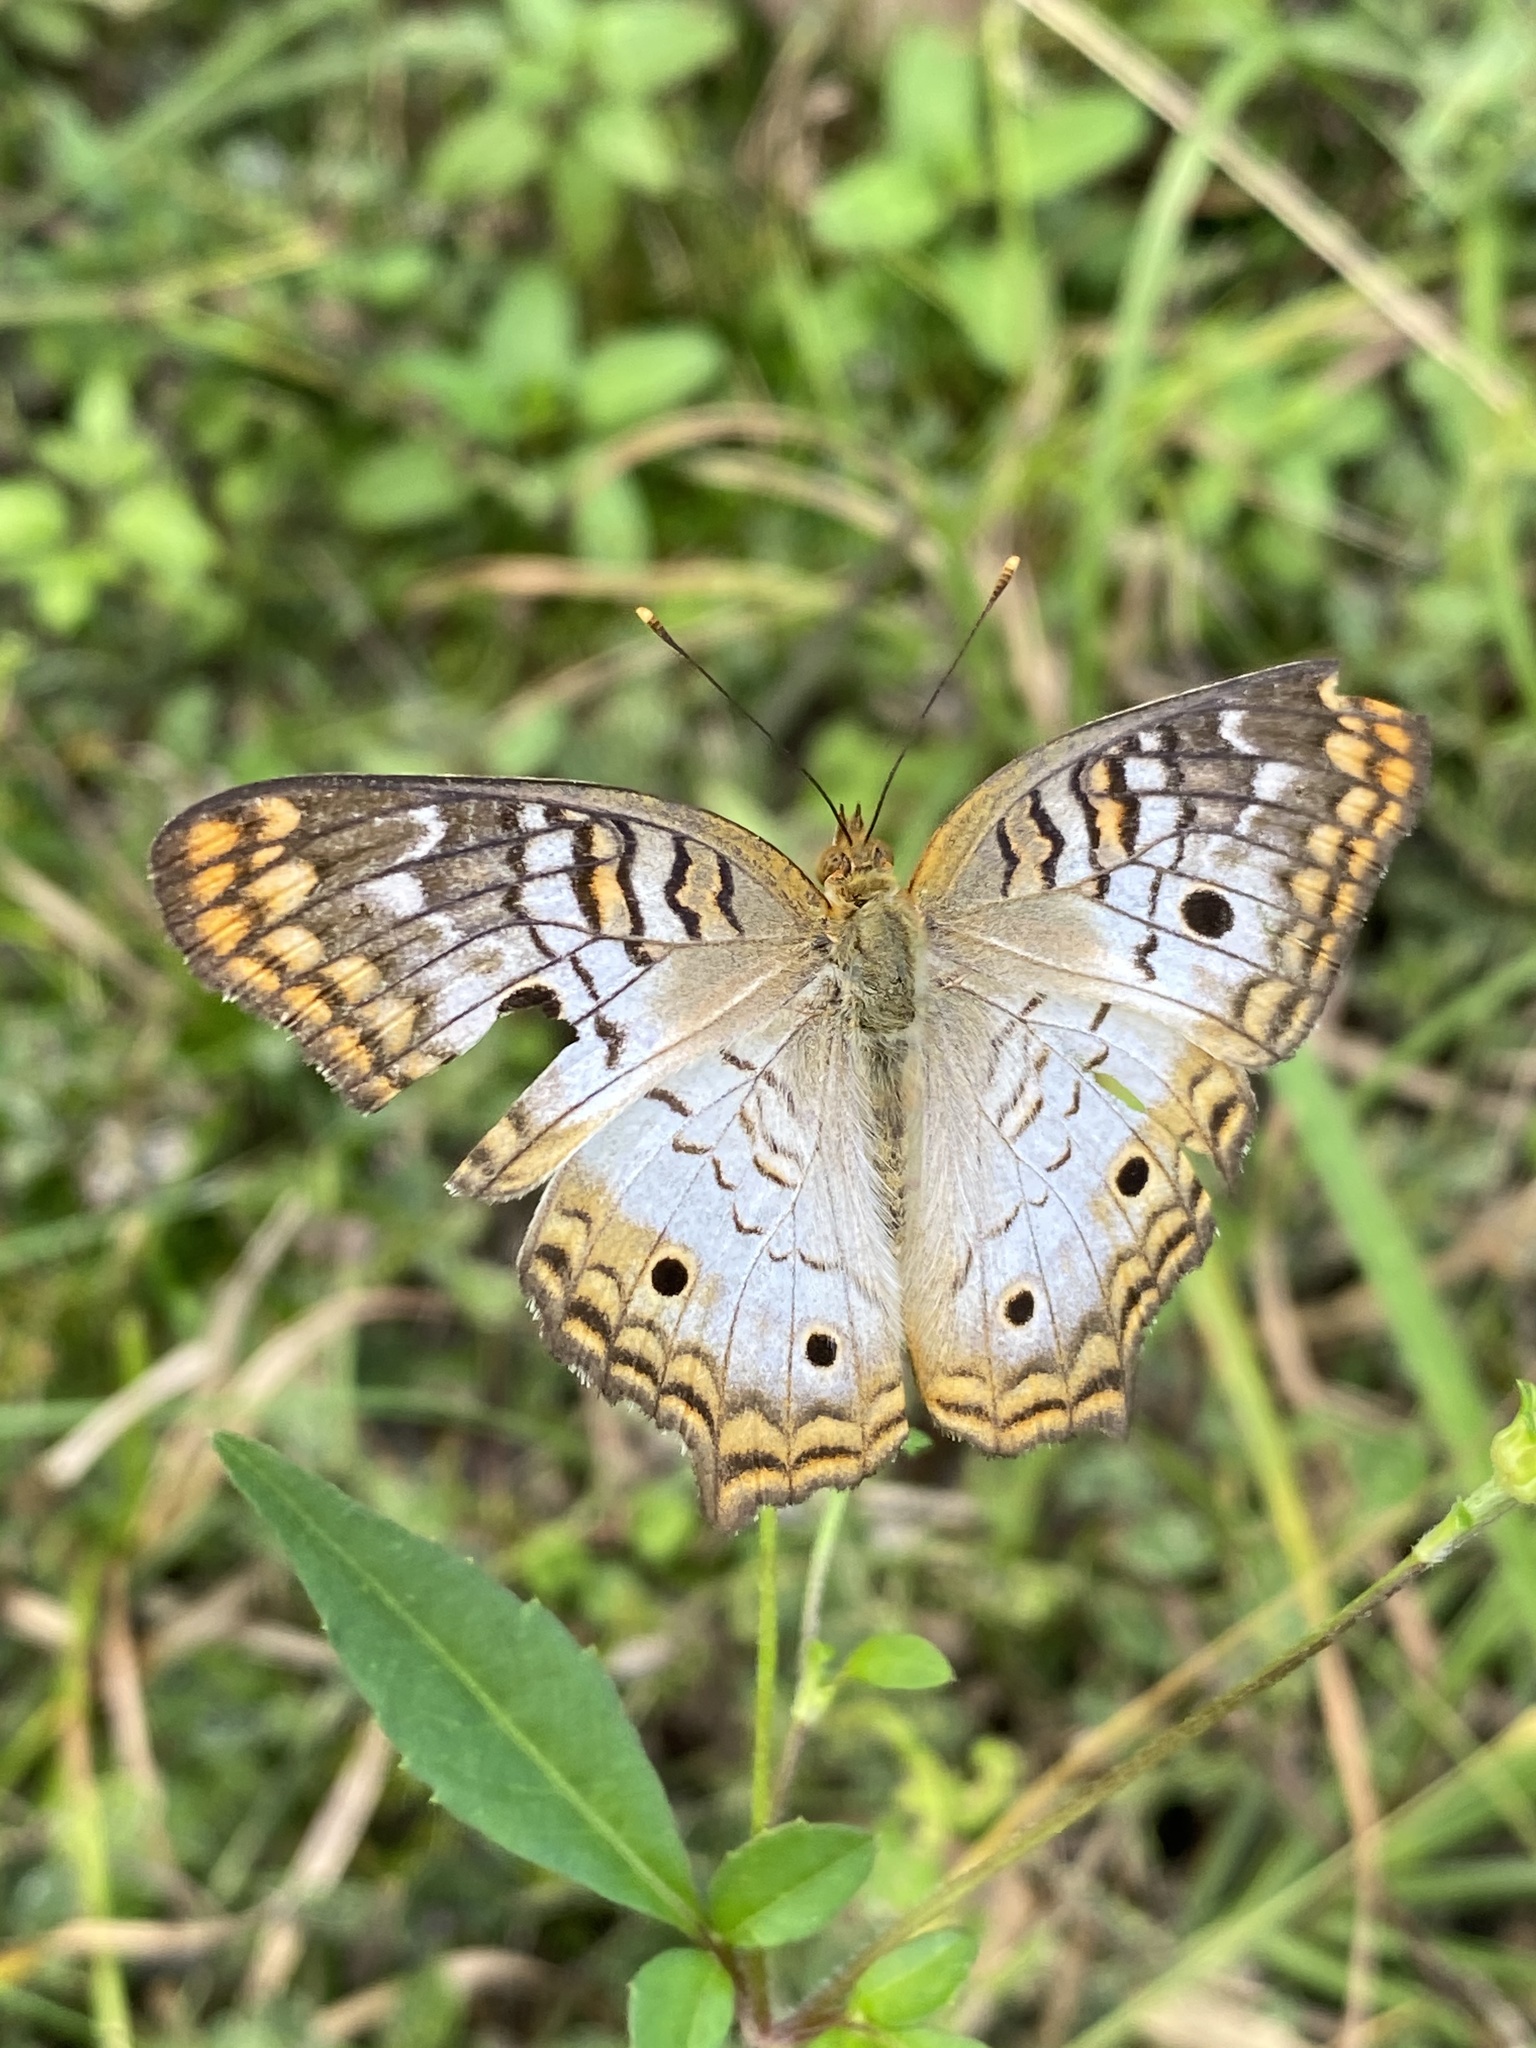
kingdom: Animalia
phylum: Arthropoda
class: Insecta
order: Lepidoptera
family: Nymphalidae
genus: Anartia
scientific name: Anartia jatrophae
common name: White peacock
